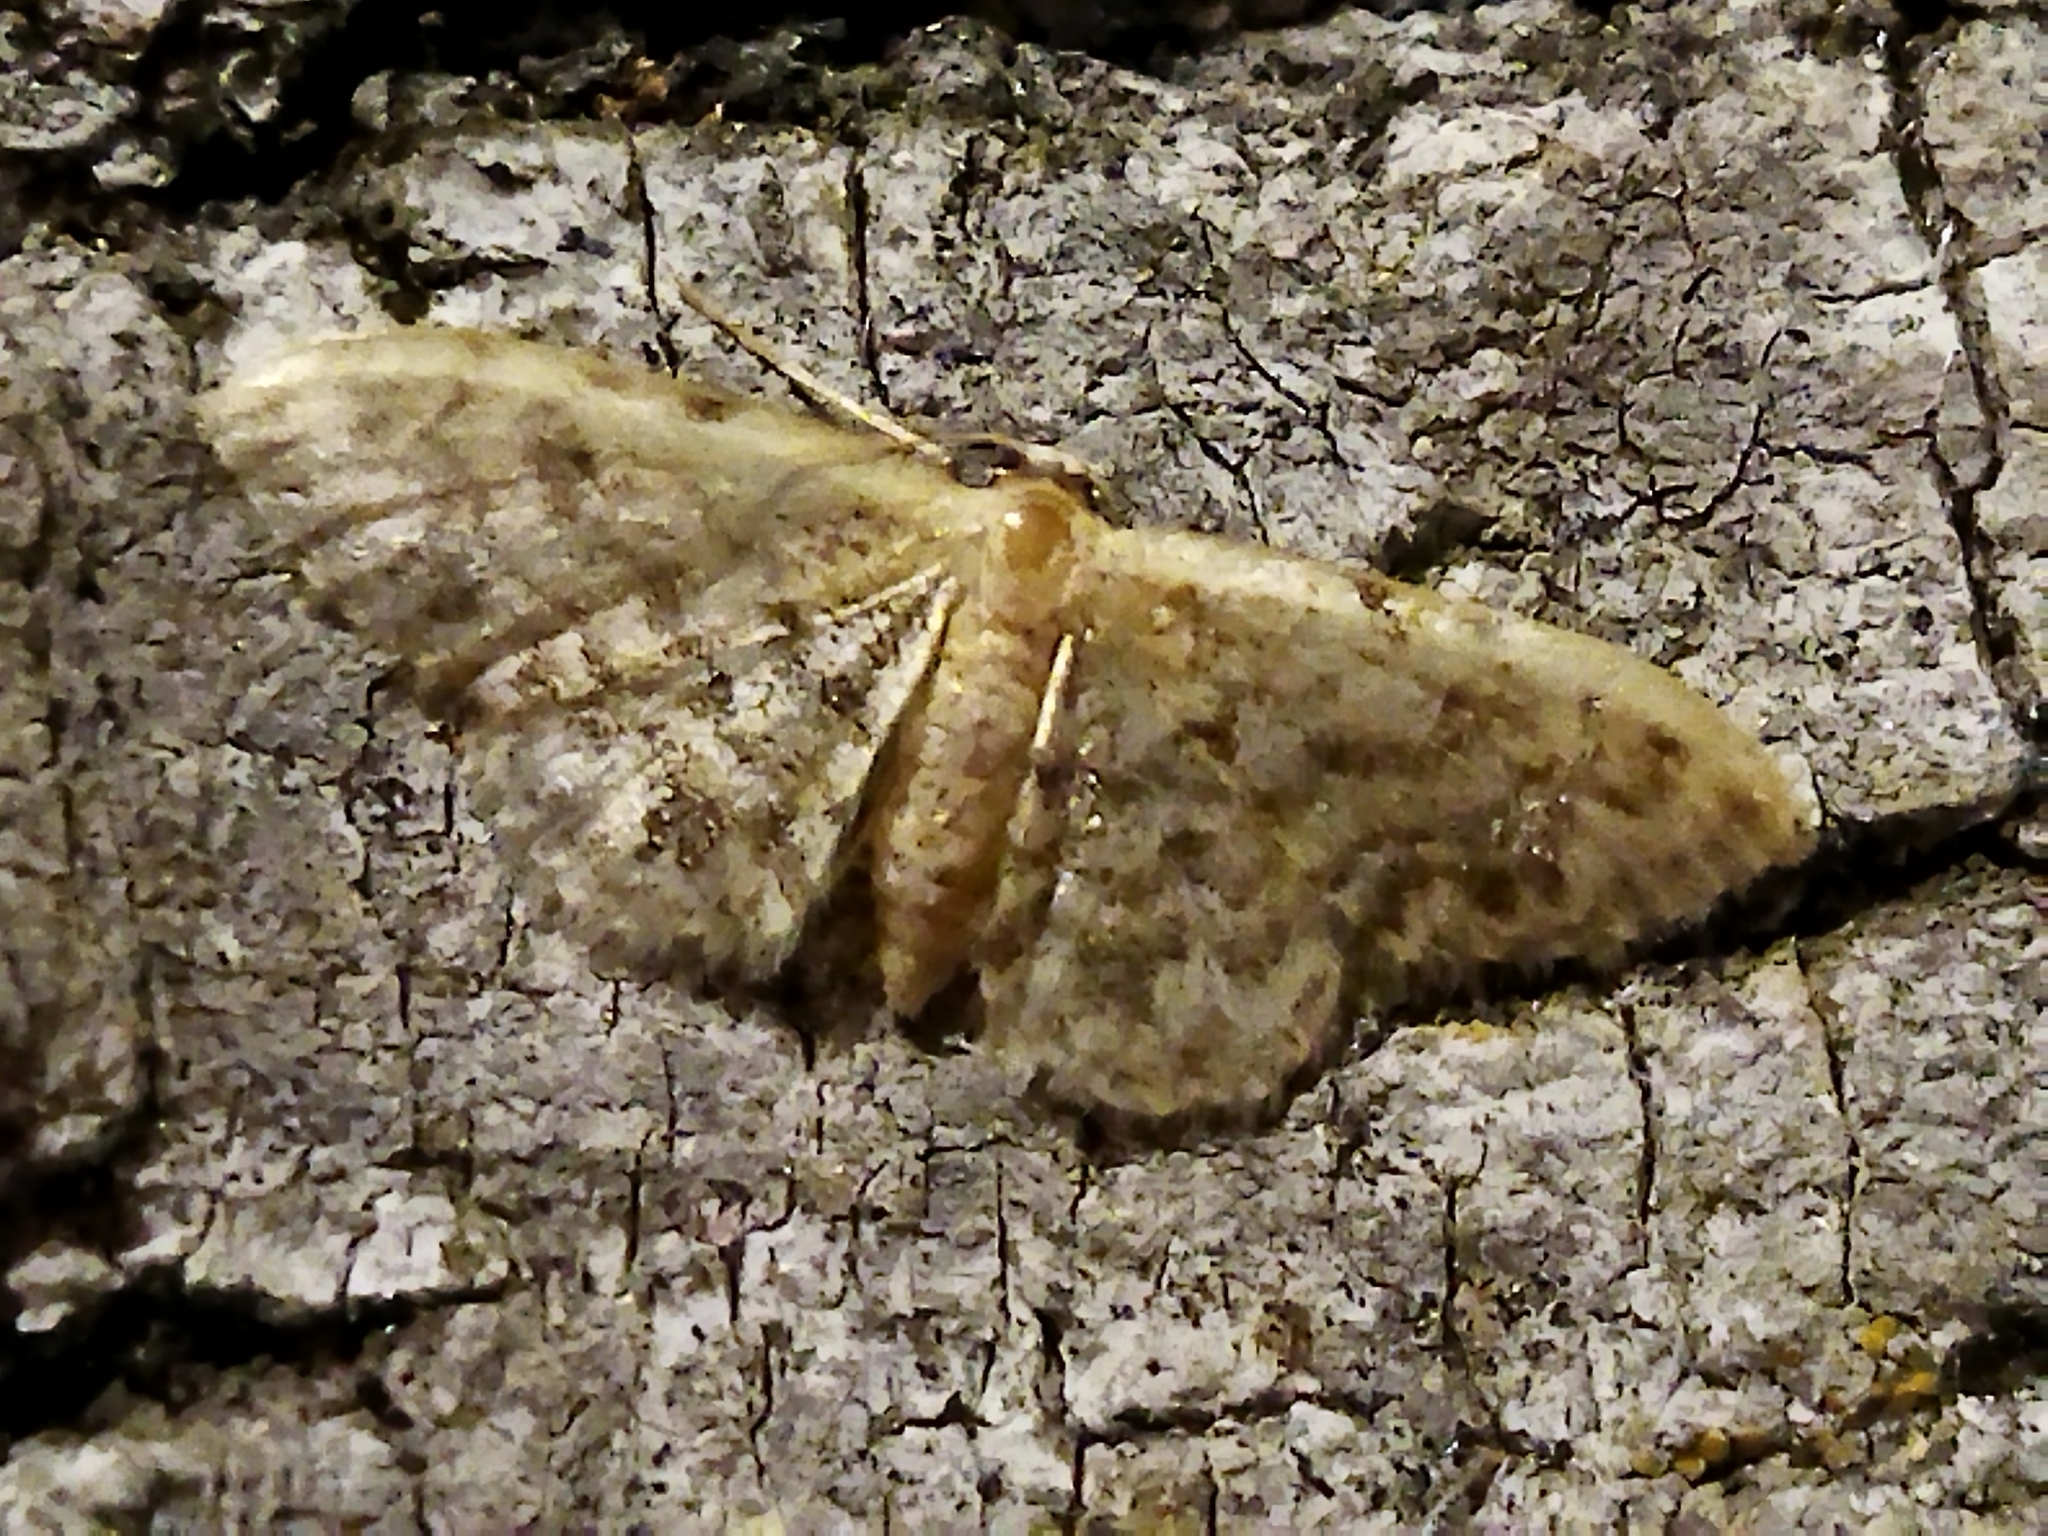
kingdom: Animalia
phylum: Arthropoda
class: Insecta
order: Lepidoptera
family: Geometridae
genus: Idaea
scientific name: Idaea inquinata
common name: Rusty wave
